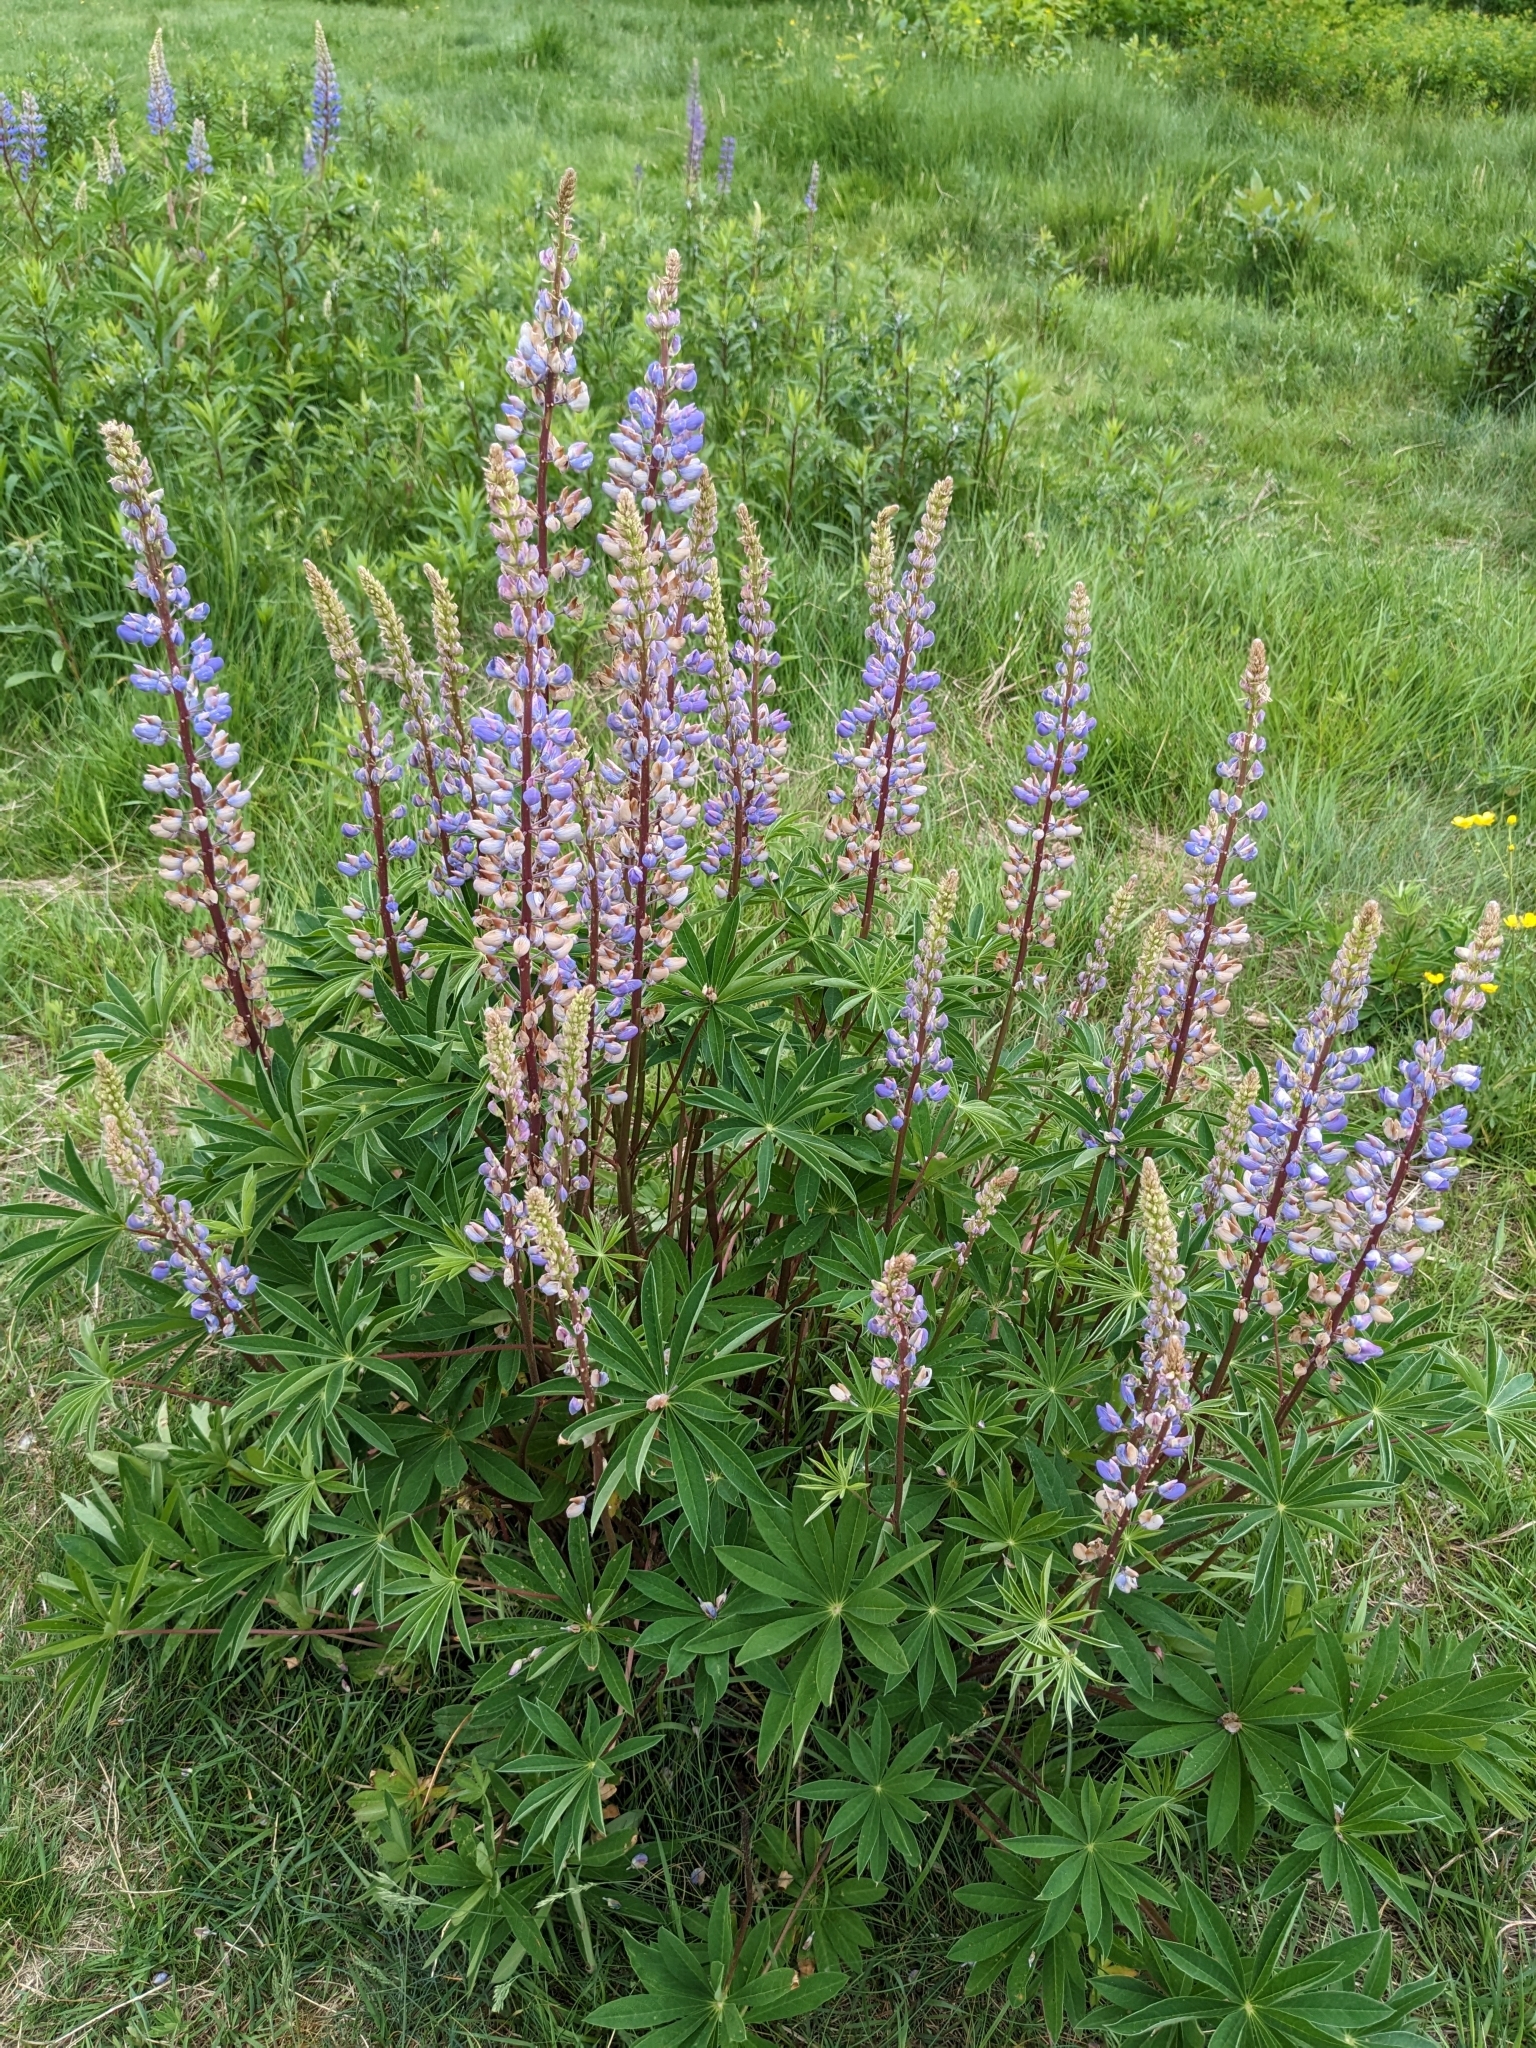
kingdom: Plantae
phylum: Tracheophyta
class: Magnoliopsida
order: Fabales
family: Fabaceae
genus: Lupinus
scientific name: Lupinus polyphyllus
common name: Garden lupin
